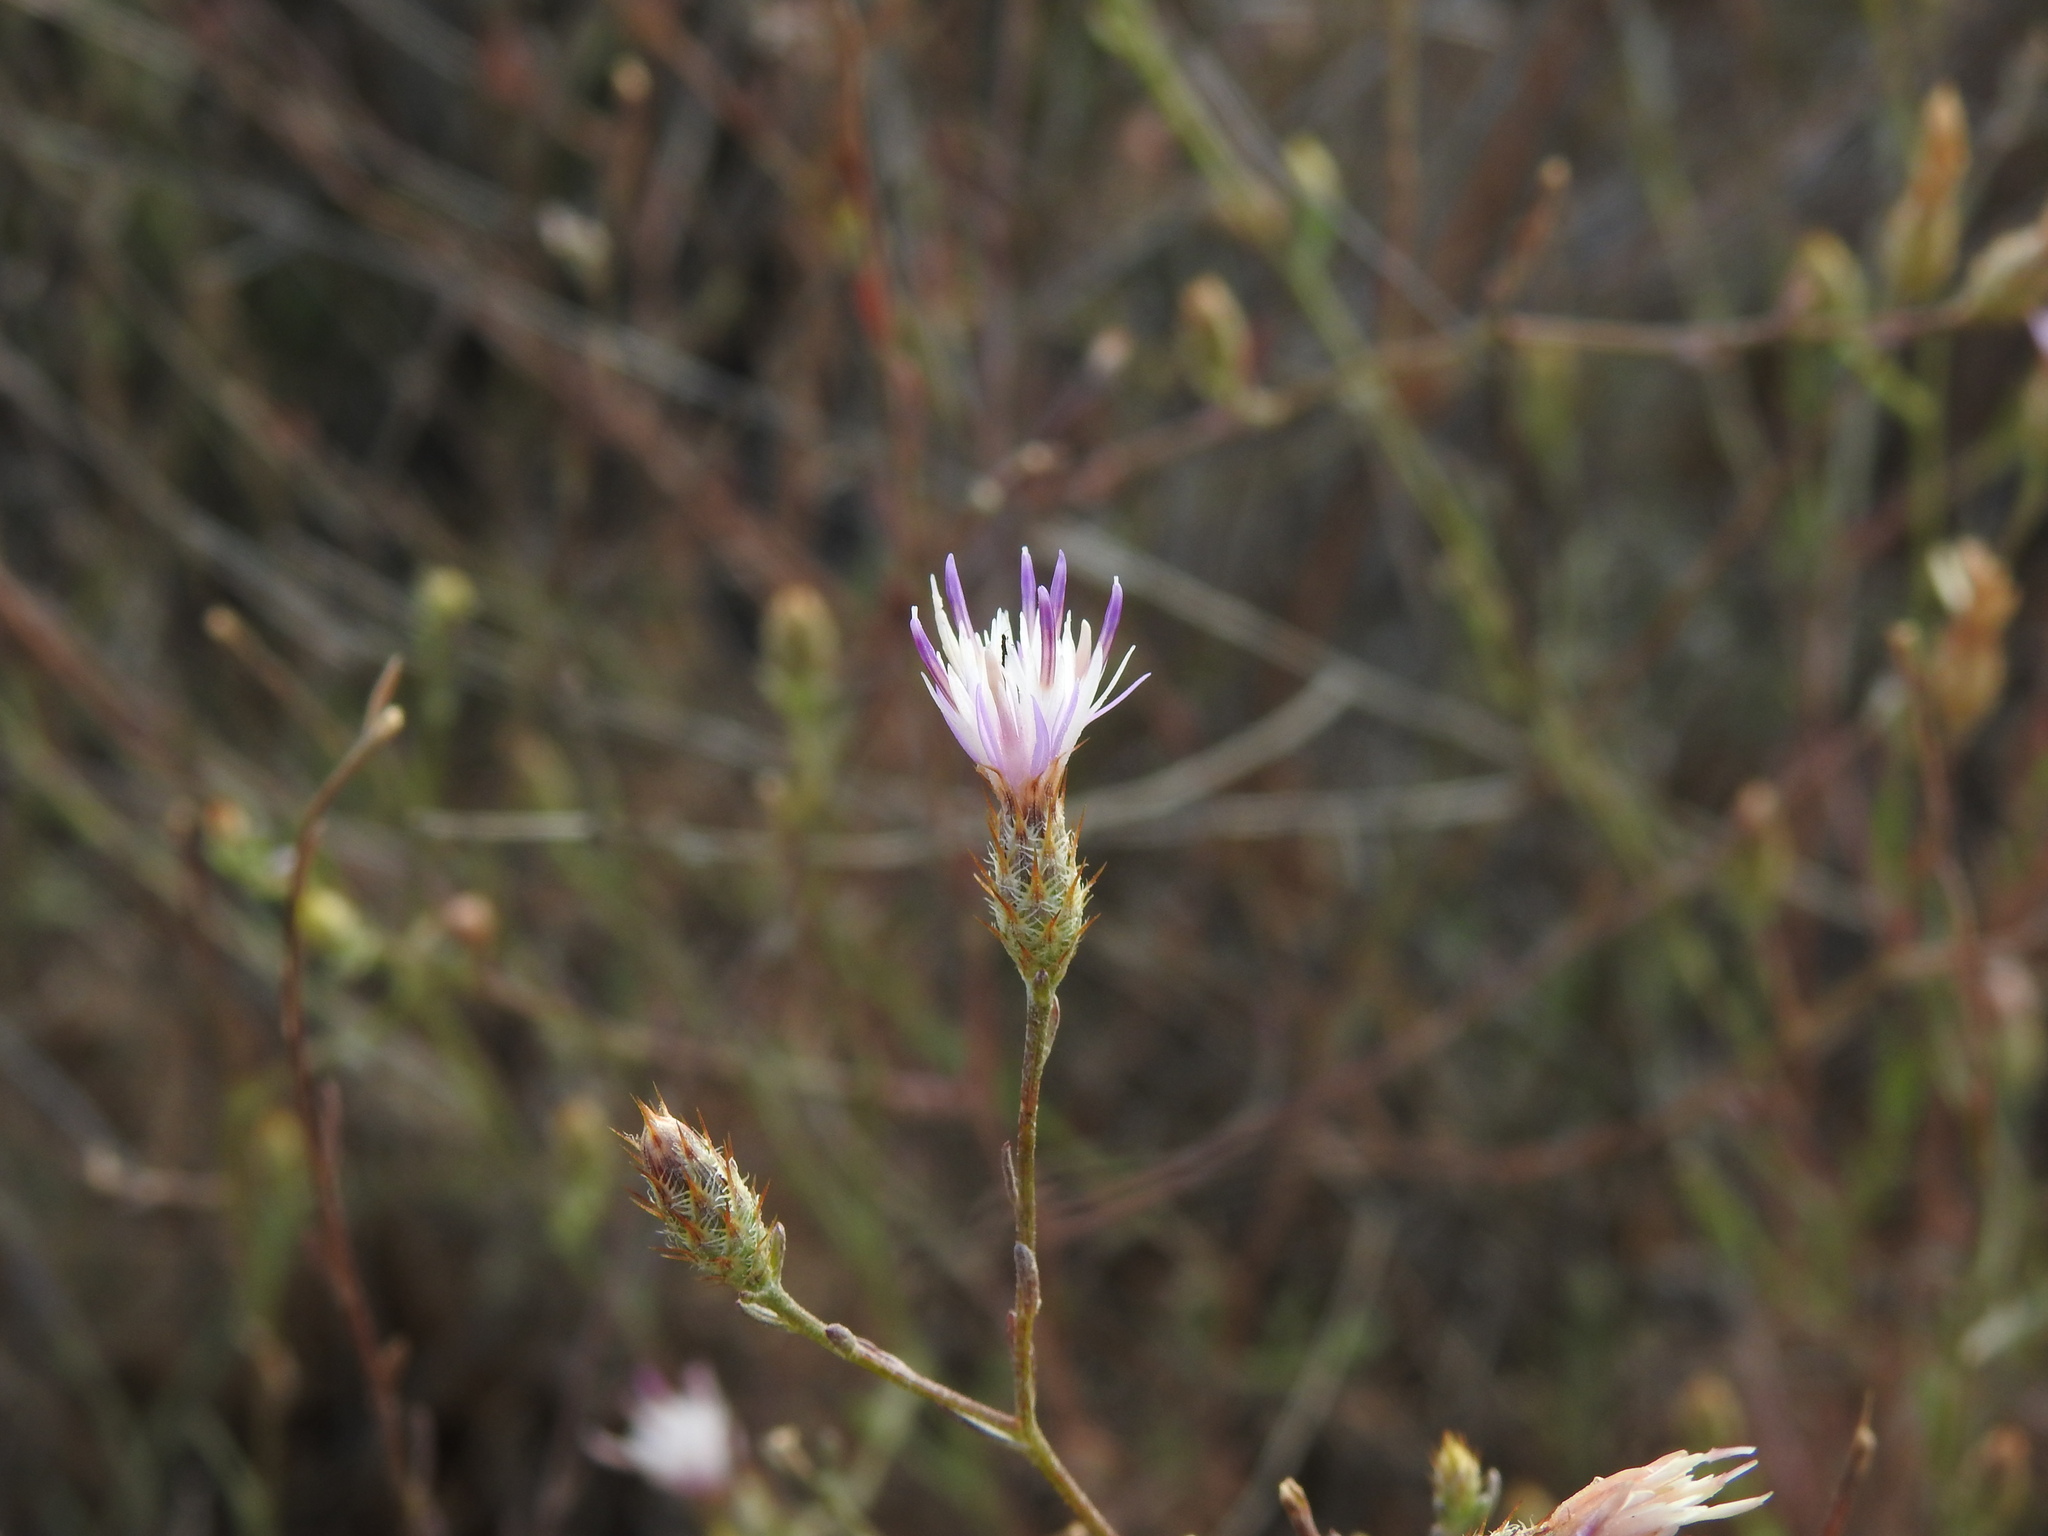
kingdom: Plantae
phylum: Tracheophyta
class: Magnoliopsida
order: Asterales
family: Asteraceae
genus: Centaurea
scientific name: Centaurea cordubensis
